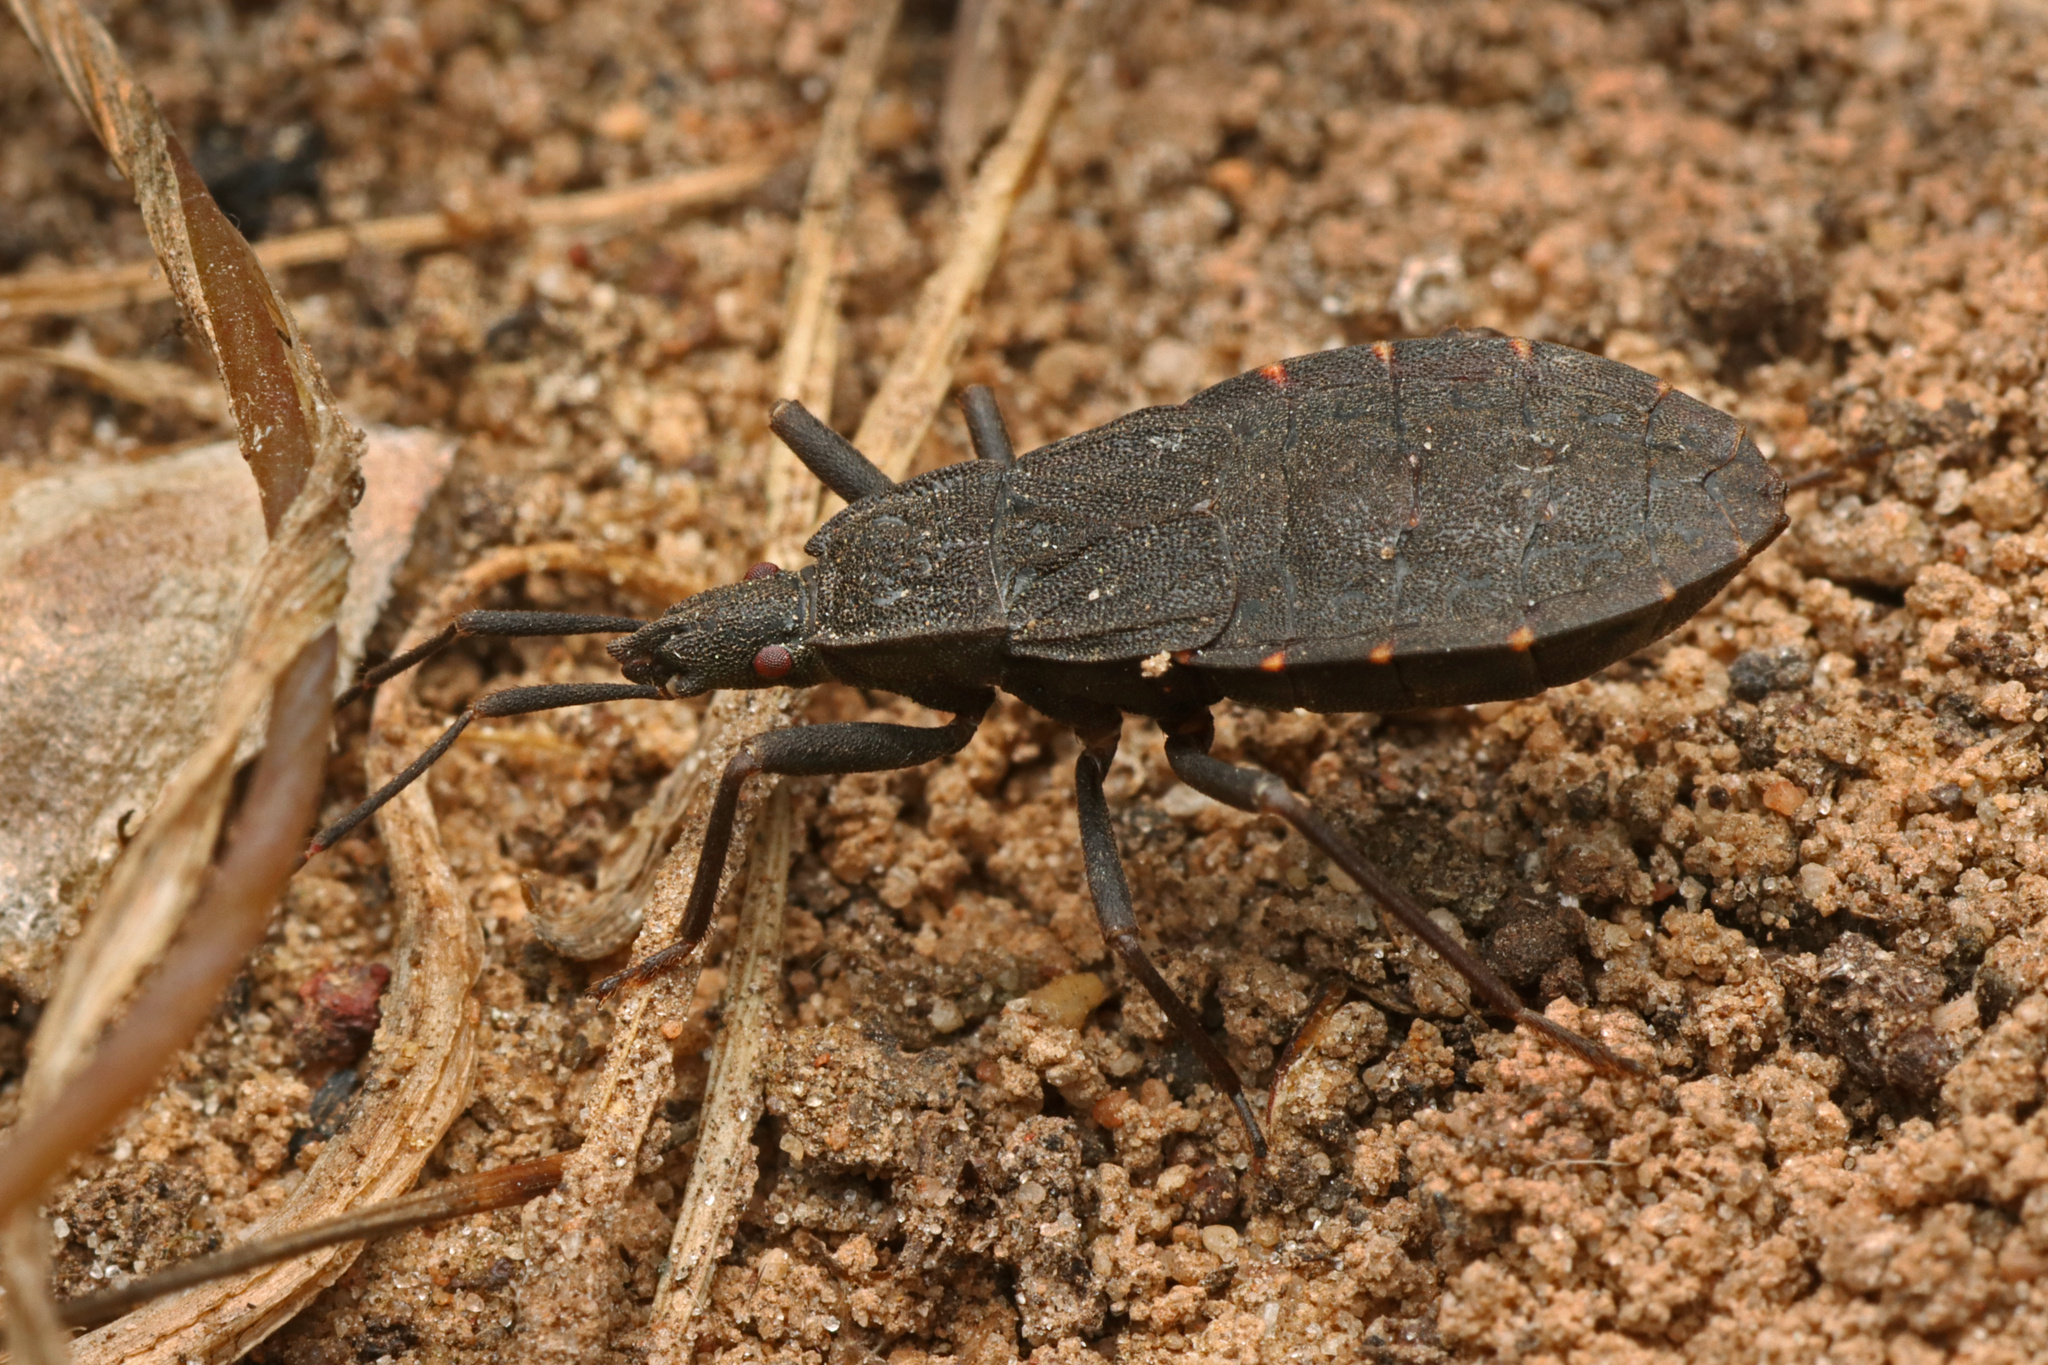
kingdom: Animalia
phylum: Arthropoda
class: Insecta
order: Hemiptera
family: Hyocephalidae
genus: Hyocephalus
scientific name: Hyocephalus aprugnus
